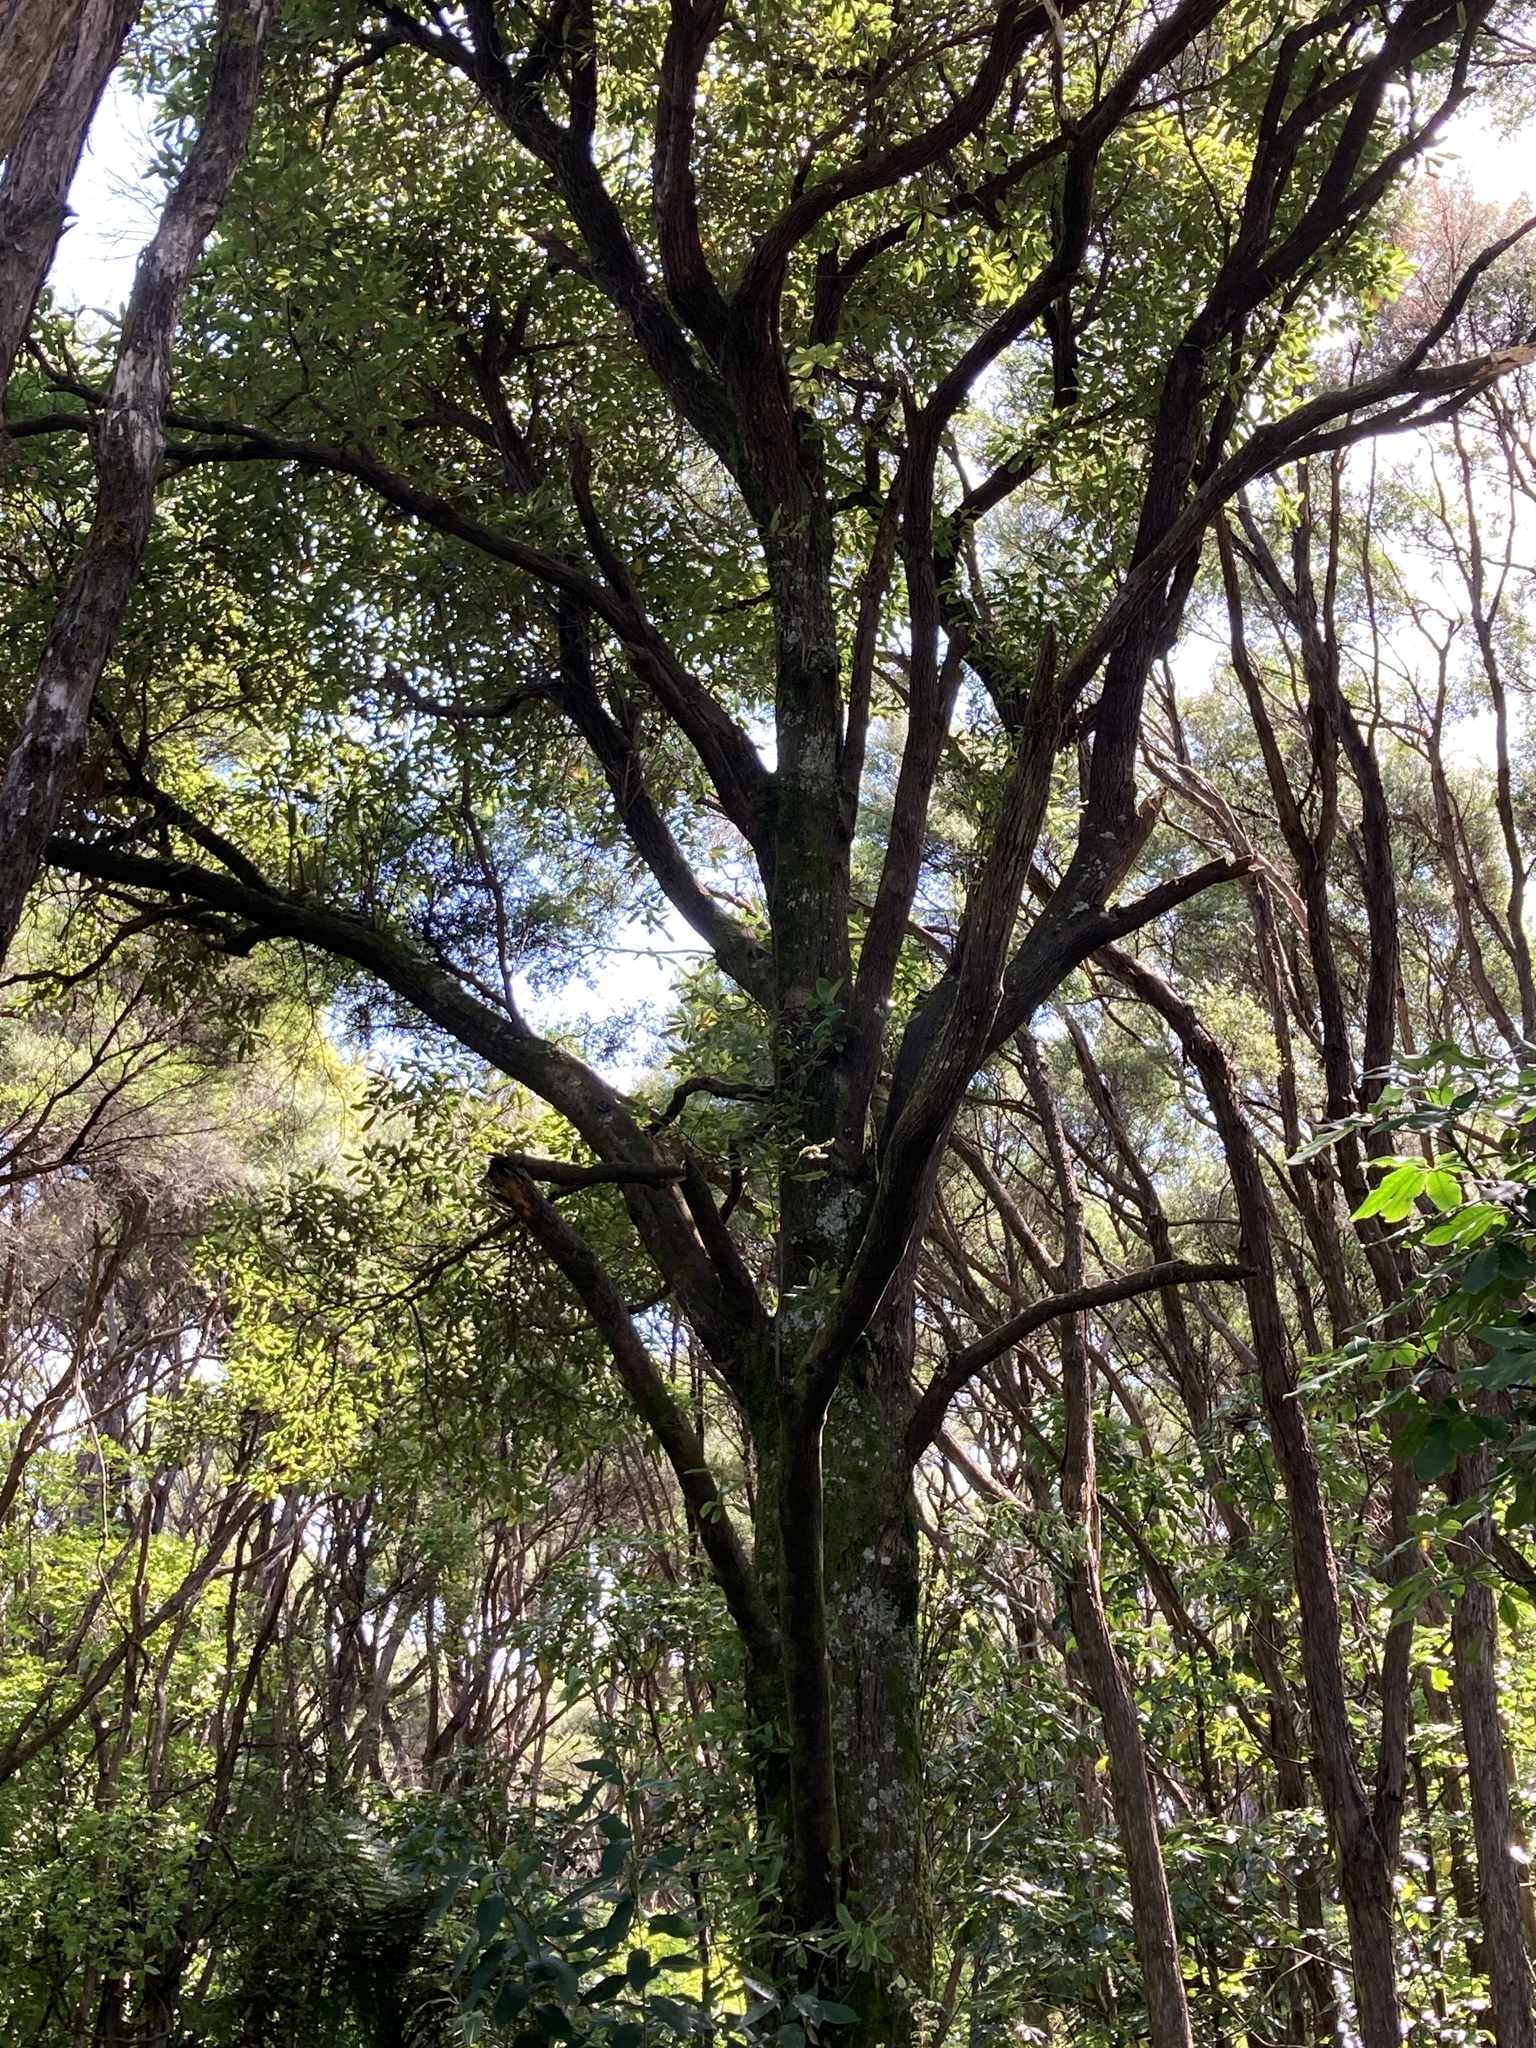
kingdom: Plantae
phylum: Tracheophyta
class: Magnoliopsida
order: Oxalidales
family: Elaeocarpaceae
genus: Elaeocarpus
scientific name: Elaeocarpus dentatus
